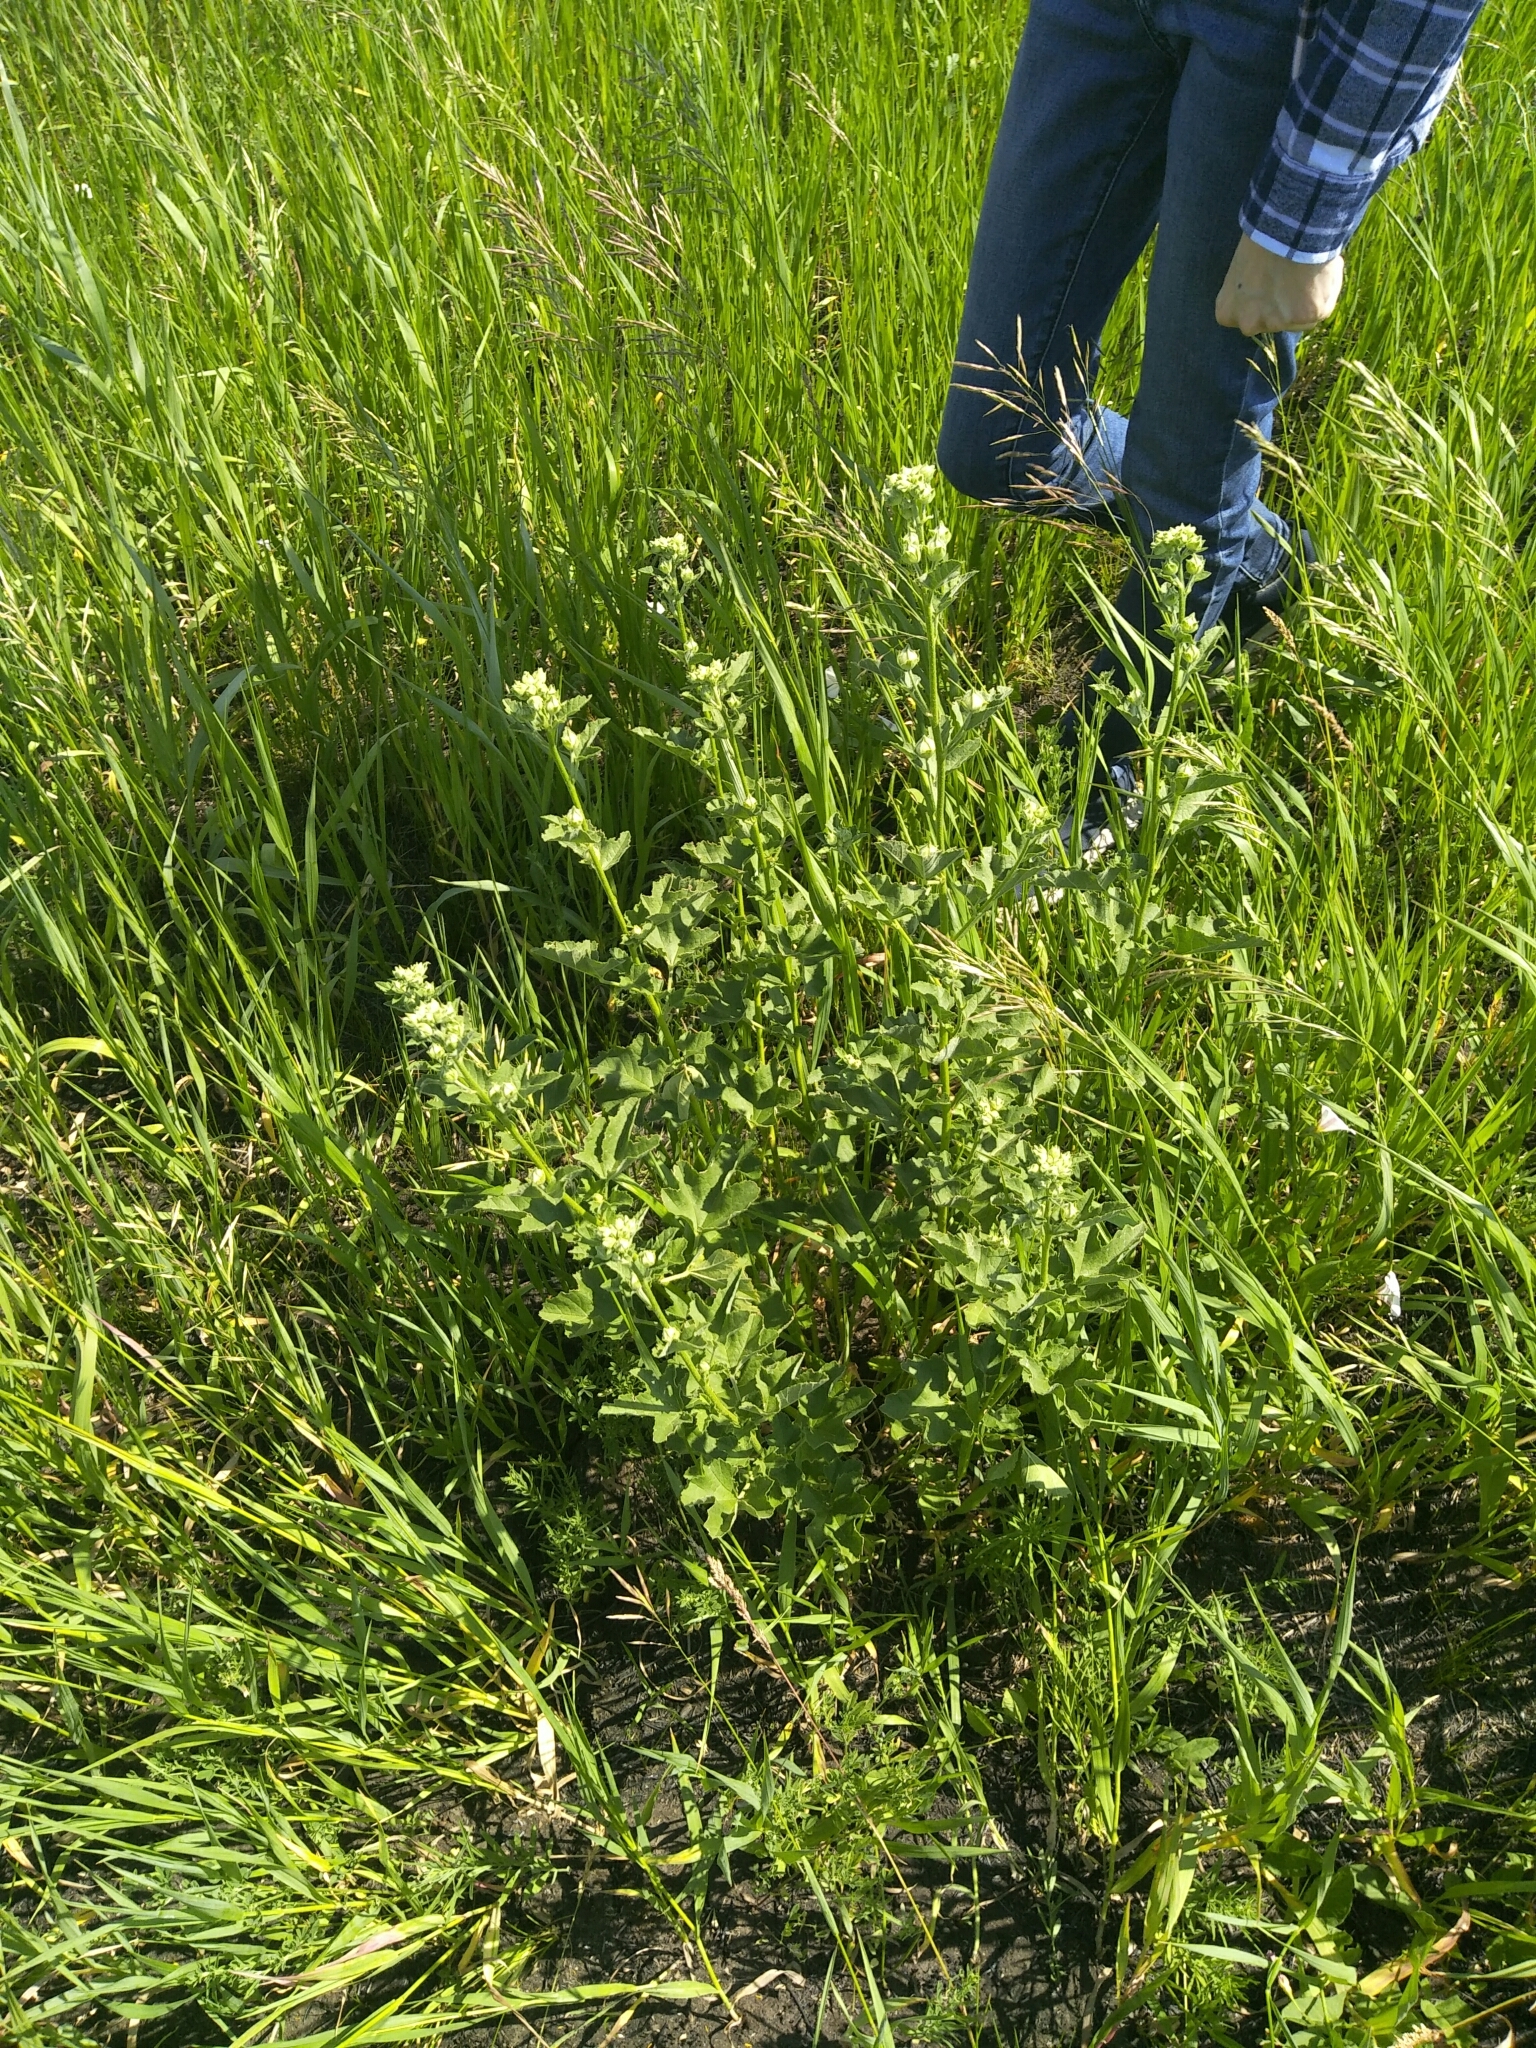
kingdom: Plantae
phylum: Tracheophyta
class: Magnoliopsida
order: Malvales
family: Malvaceae
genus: Malva
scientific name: Malva thuringiaca
